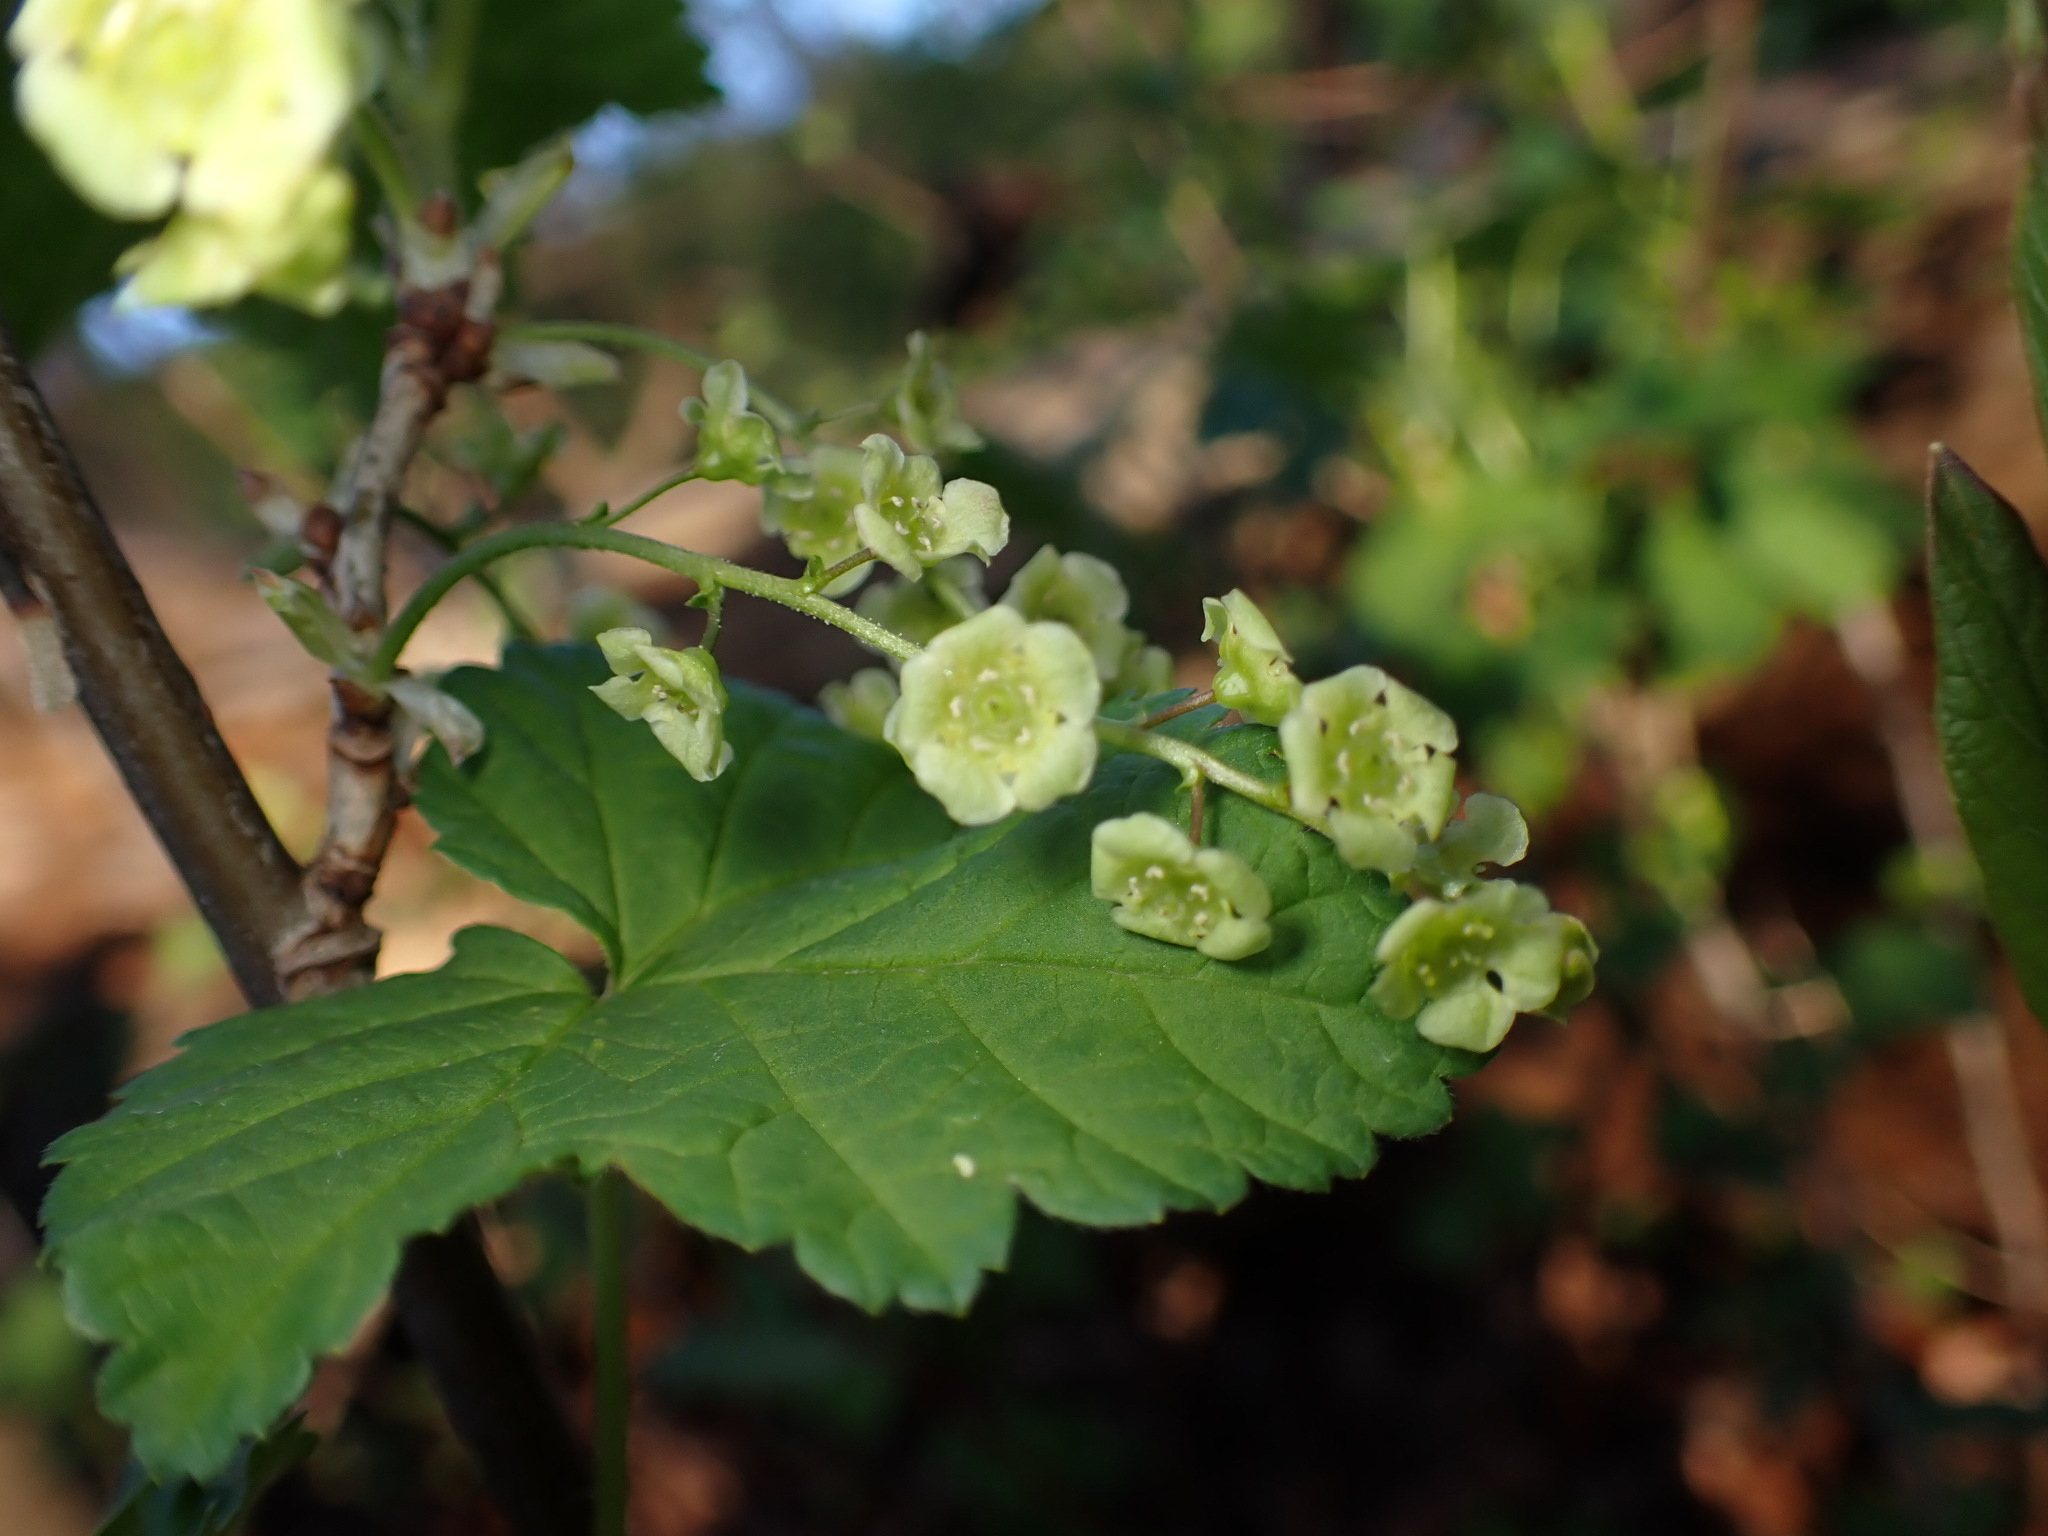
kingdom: Plantae
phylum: Tracheophyta
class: Magnoliopsida
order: Saxifragales
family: Grossulariaceae
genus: Ribes
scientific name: Ribes rubrum
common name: Red currant
